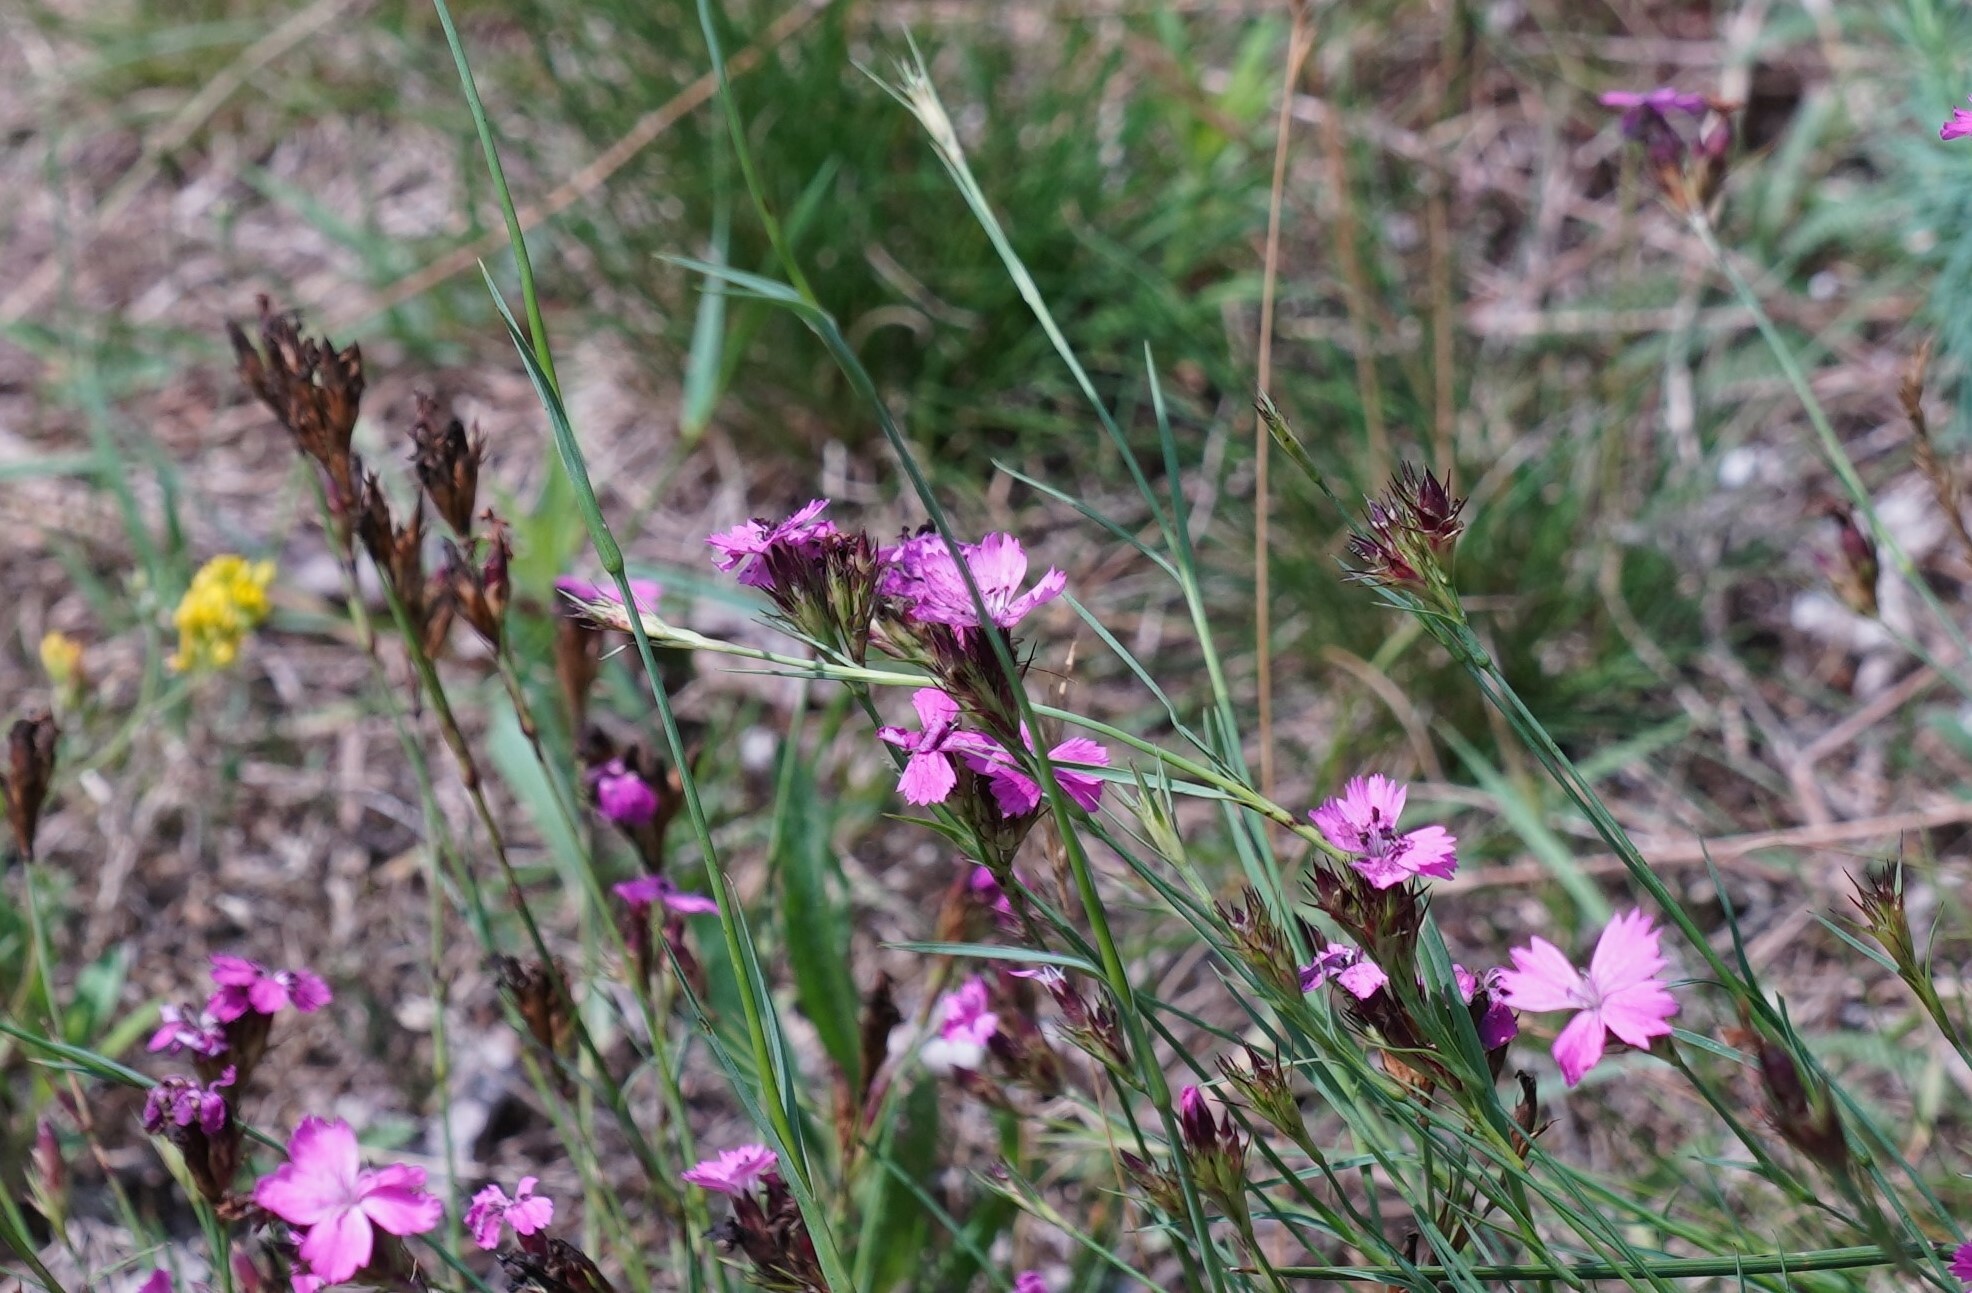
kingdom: Plantae
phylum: Tracheophyta
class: Magnoliopsida
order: Caryophyllales
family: Caryophyllaceae
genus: Dianthus
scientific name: Dianthus carthusianorum
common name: Carthusian pink
